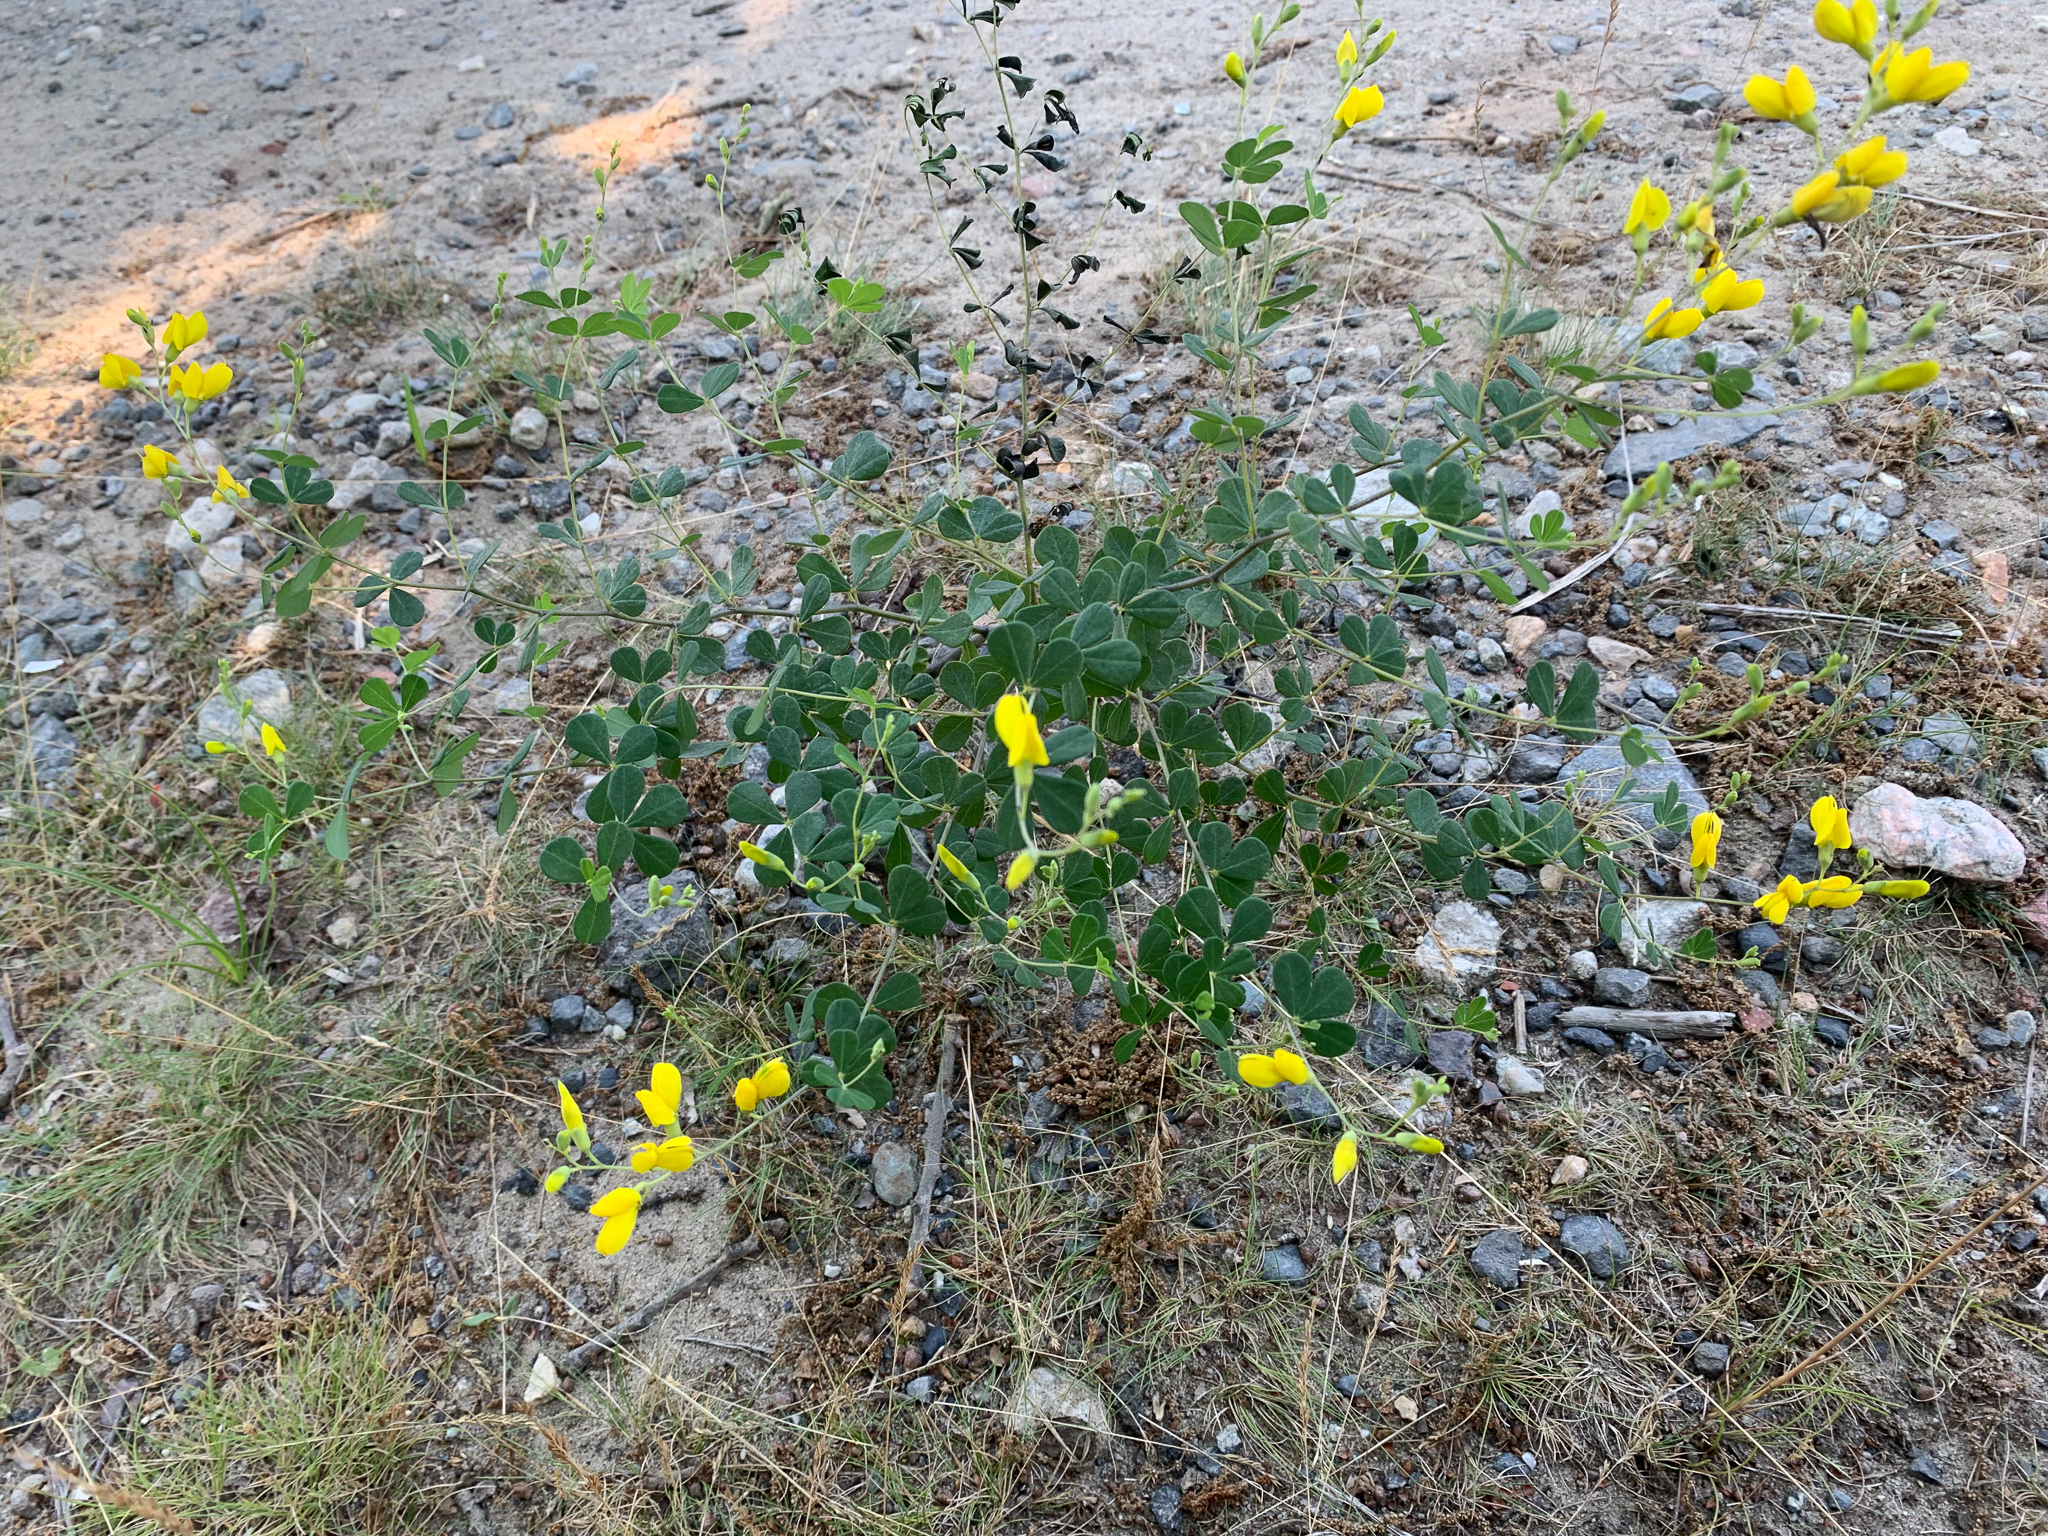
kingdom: Plantae
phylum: Tracheophyta
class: Magnoliopsida
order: Fabales
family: Fabaceae
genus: Baptisia
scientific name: Baptisia tinctoria
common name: Wild indigo
